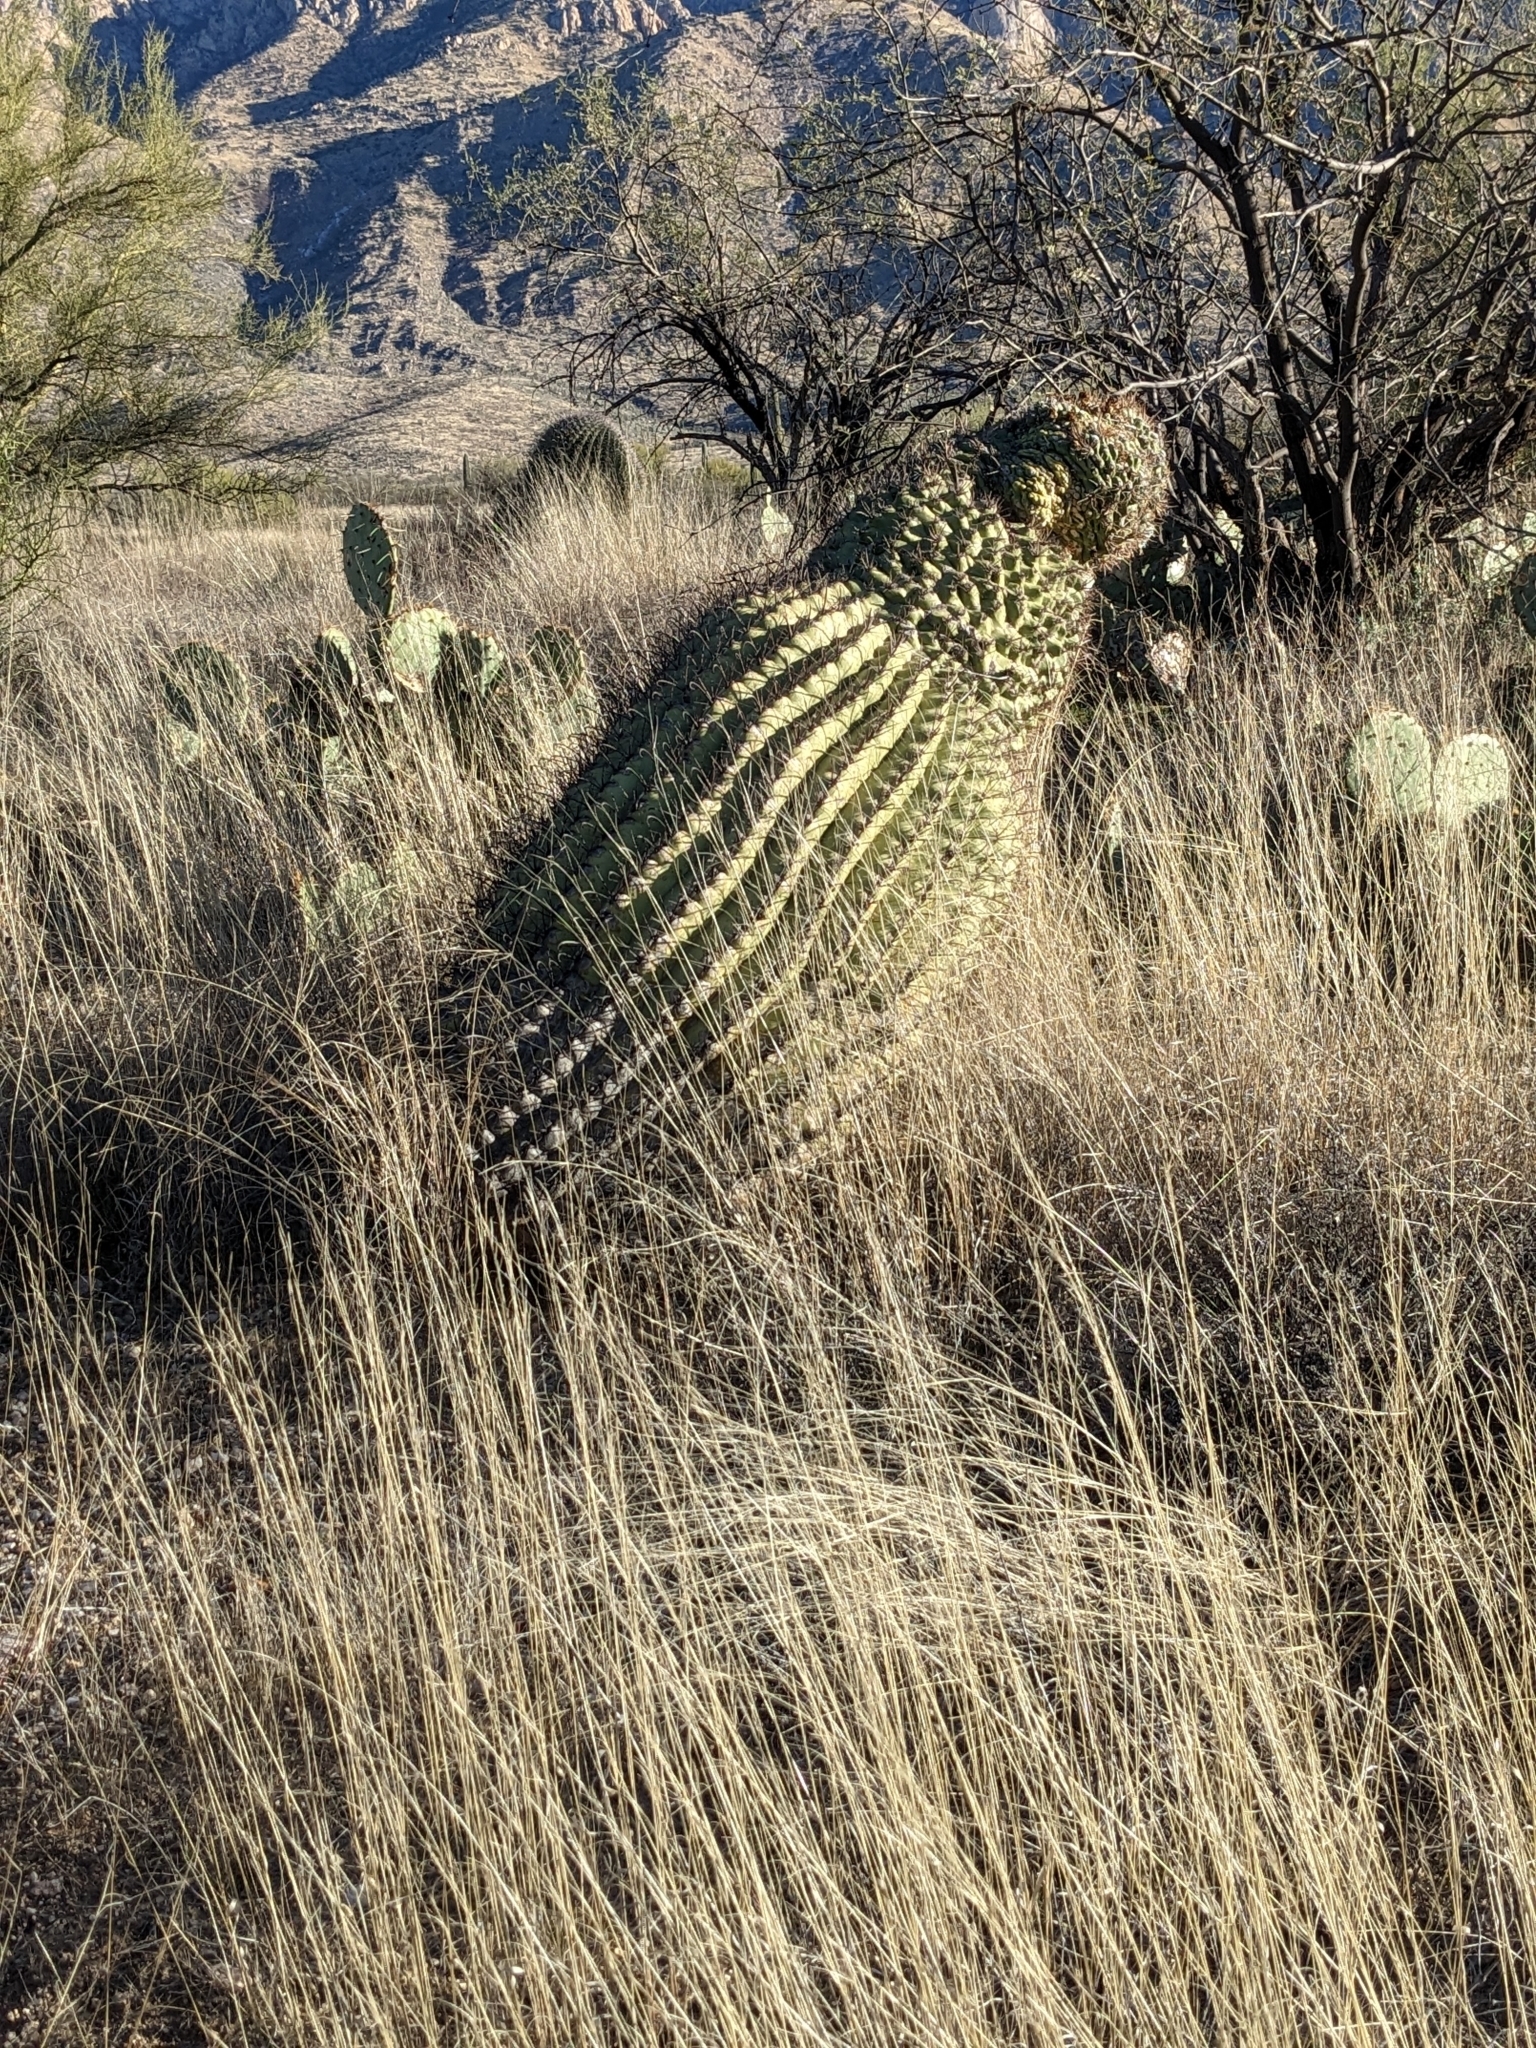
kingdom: Plantae
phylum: Tracheophyta
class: Magnoliopsida
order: Caryophyllales
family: Cactaceae
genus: Ferocactus
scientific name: Ferocactus wislizeni
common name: Candy barrel cactus
